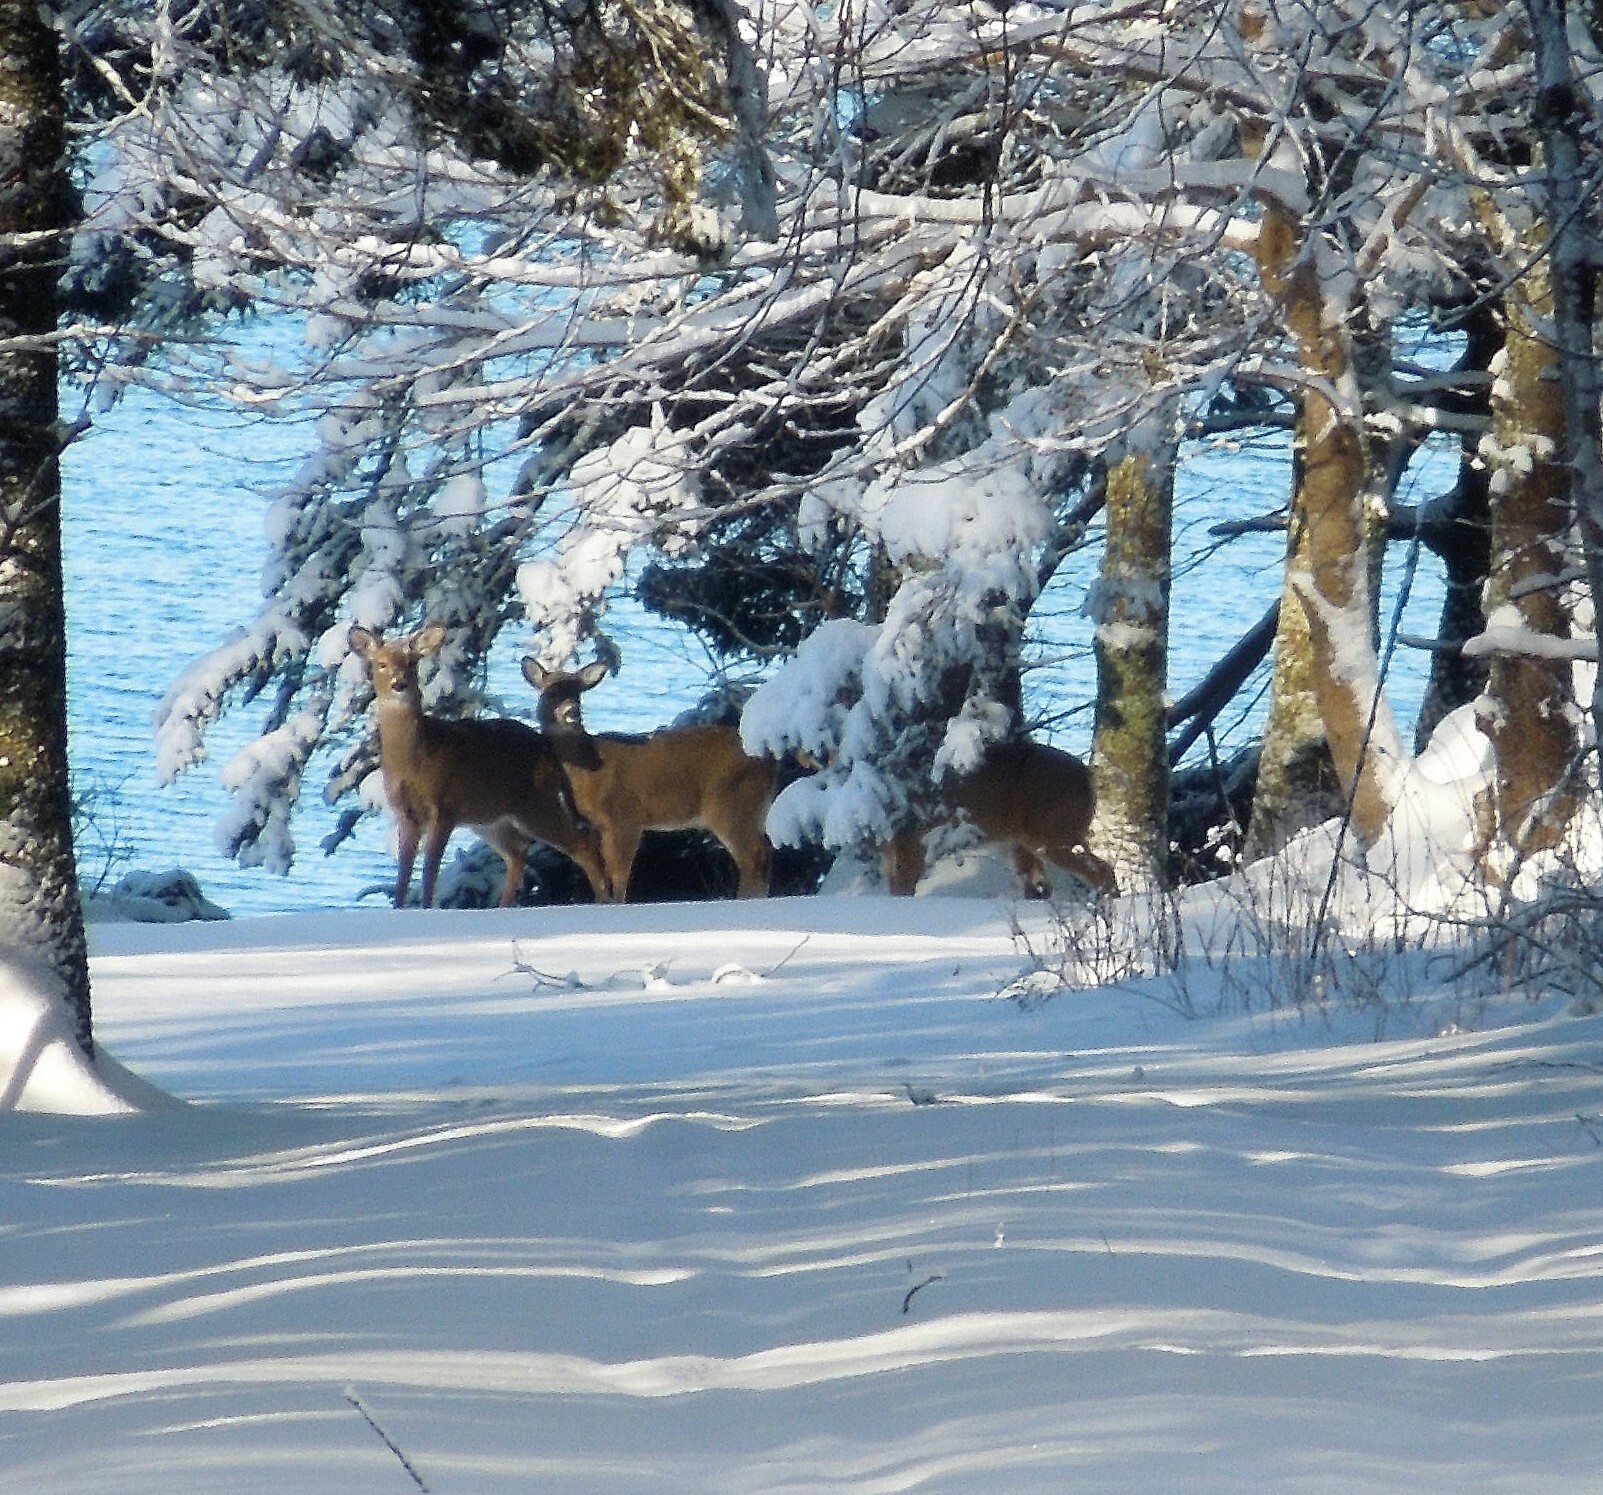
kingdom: Animalia
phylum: Chordata
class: Mammalia
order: Artiodactyla
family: Cervidae
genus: Odocoileus
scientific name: Odocoileus virginianus
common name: White-tailed deer
